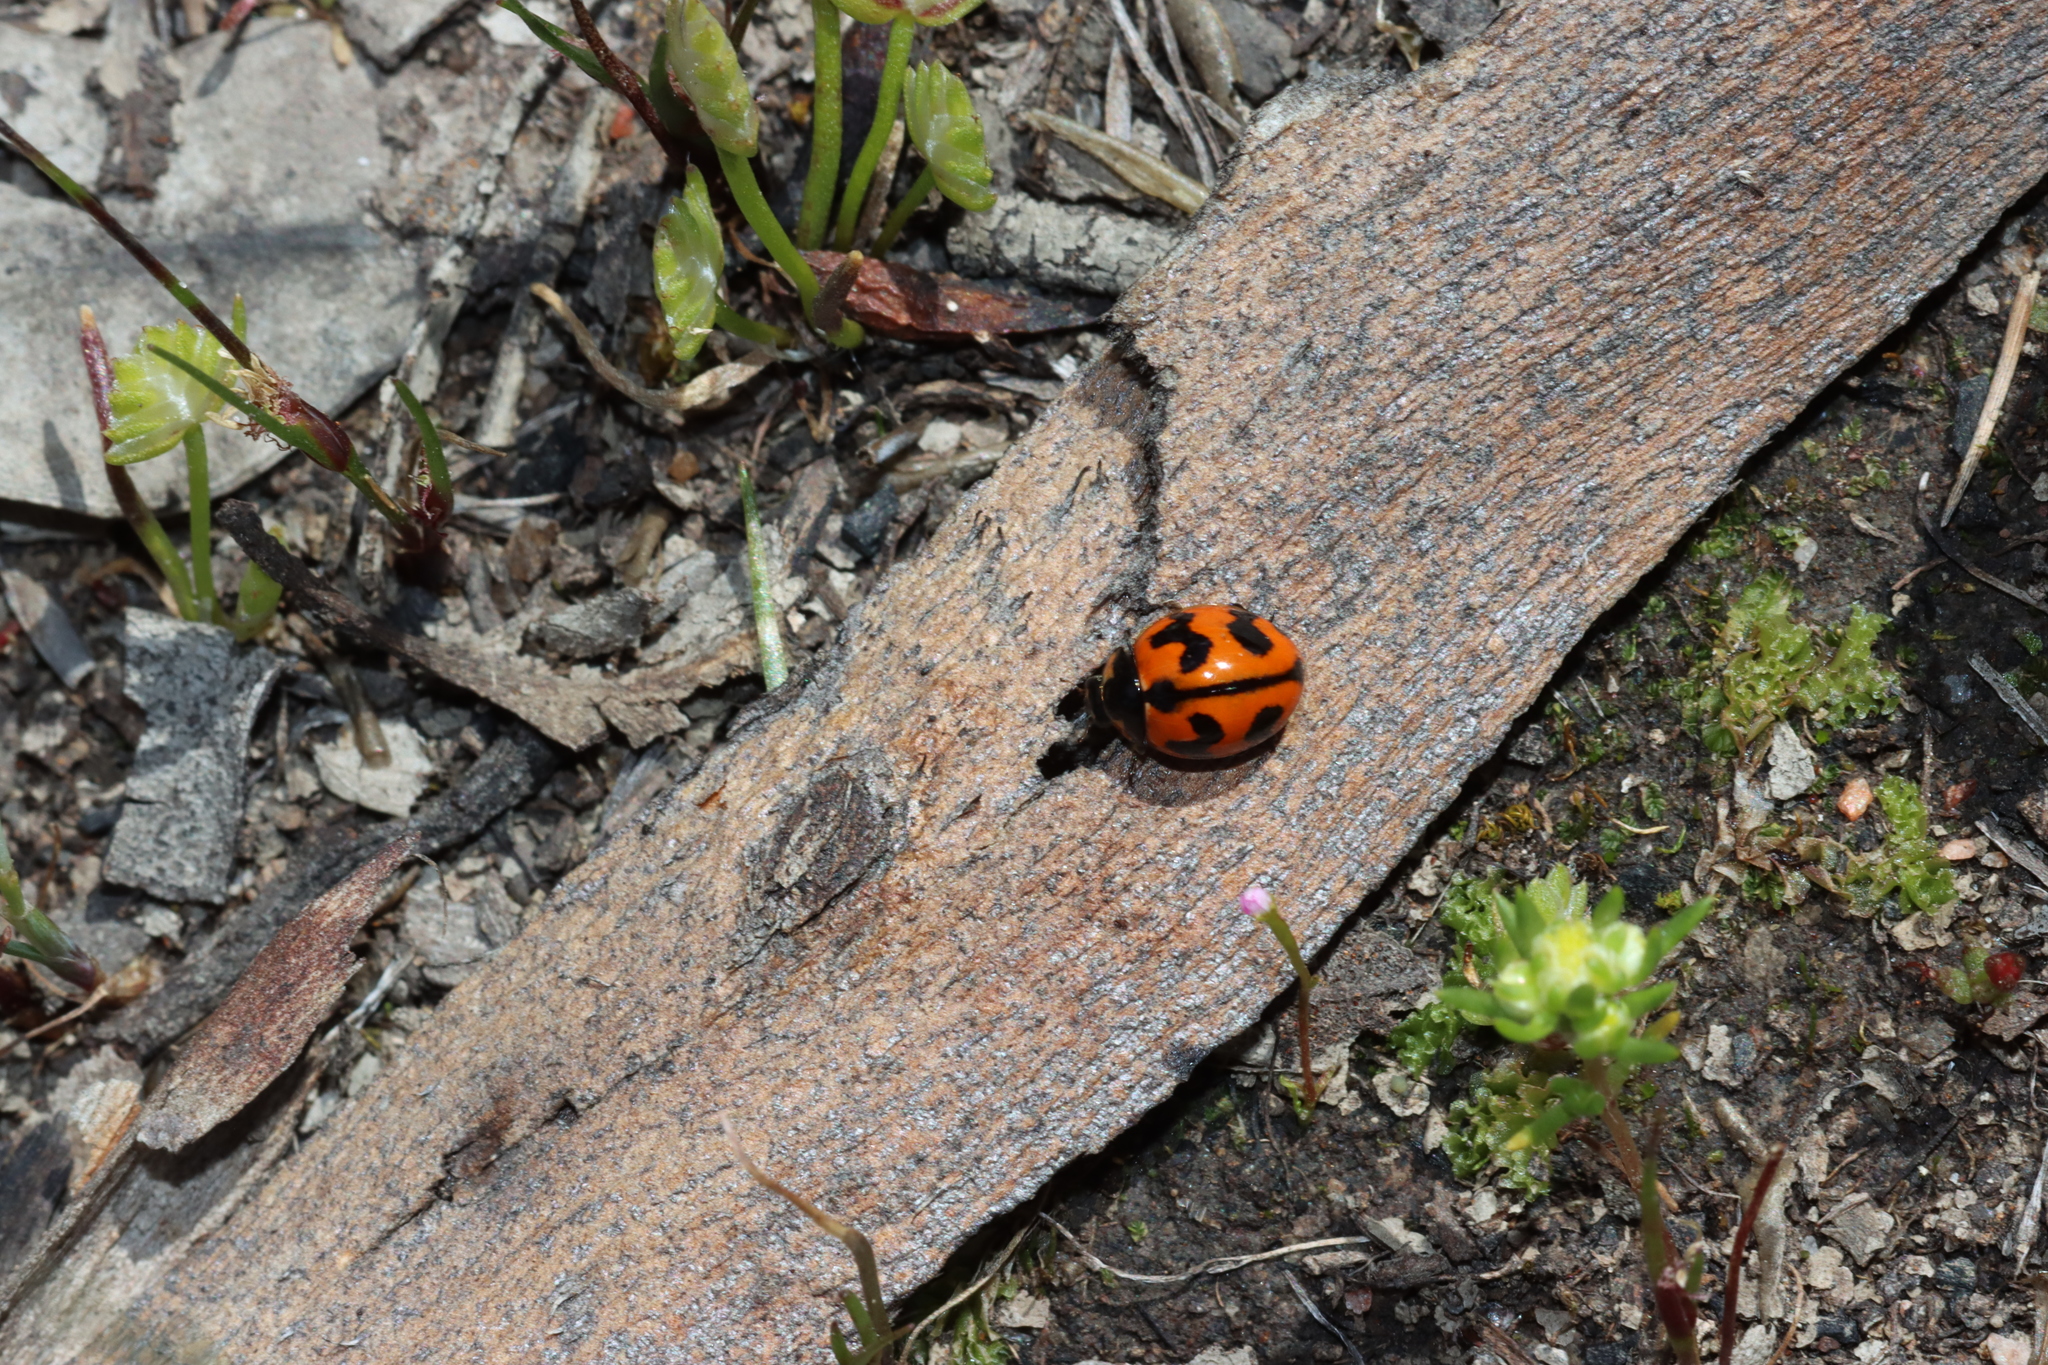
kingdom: Animalia
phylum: Arthropoda
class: Insecta
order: Coleoptera
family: Coccinellidae
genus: Coccinella
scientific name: Coccinella transversalis
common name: Transverse lady beetle
